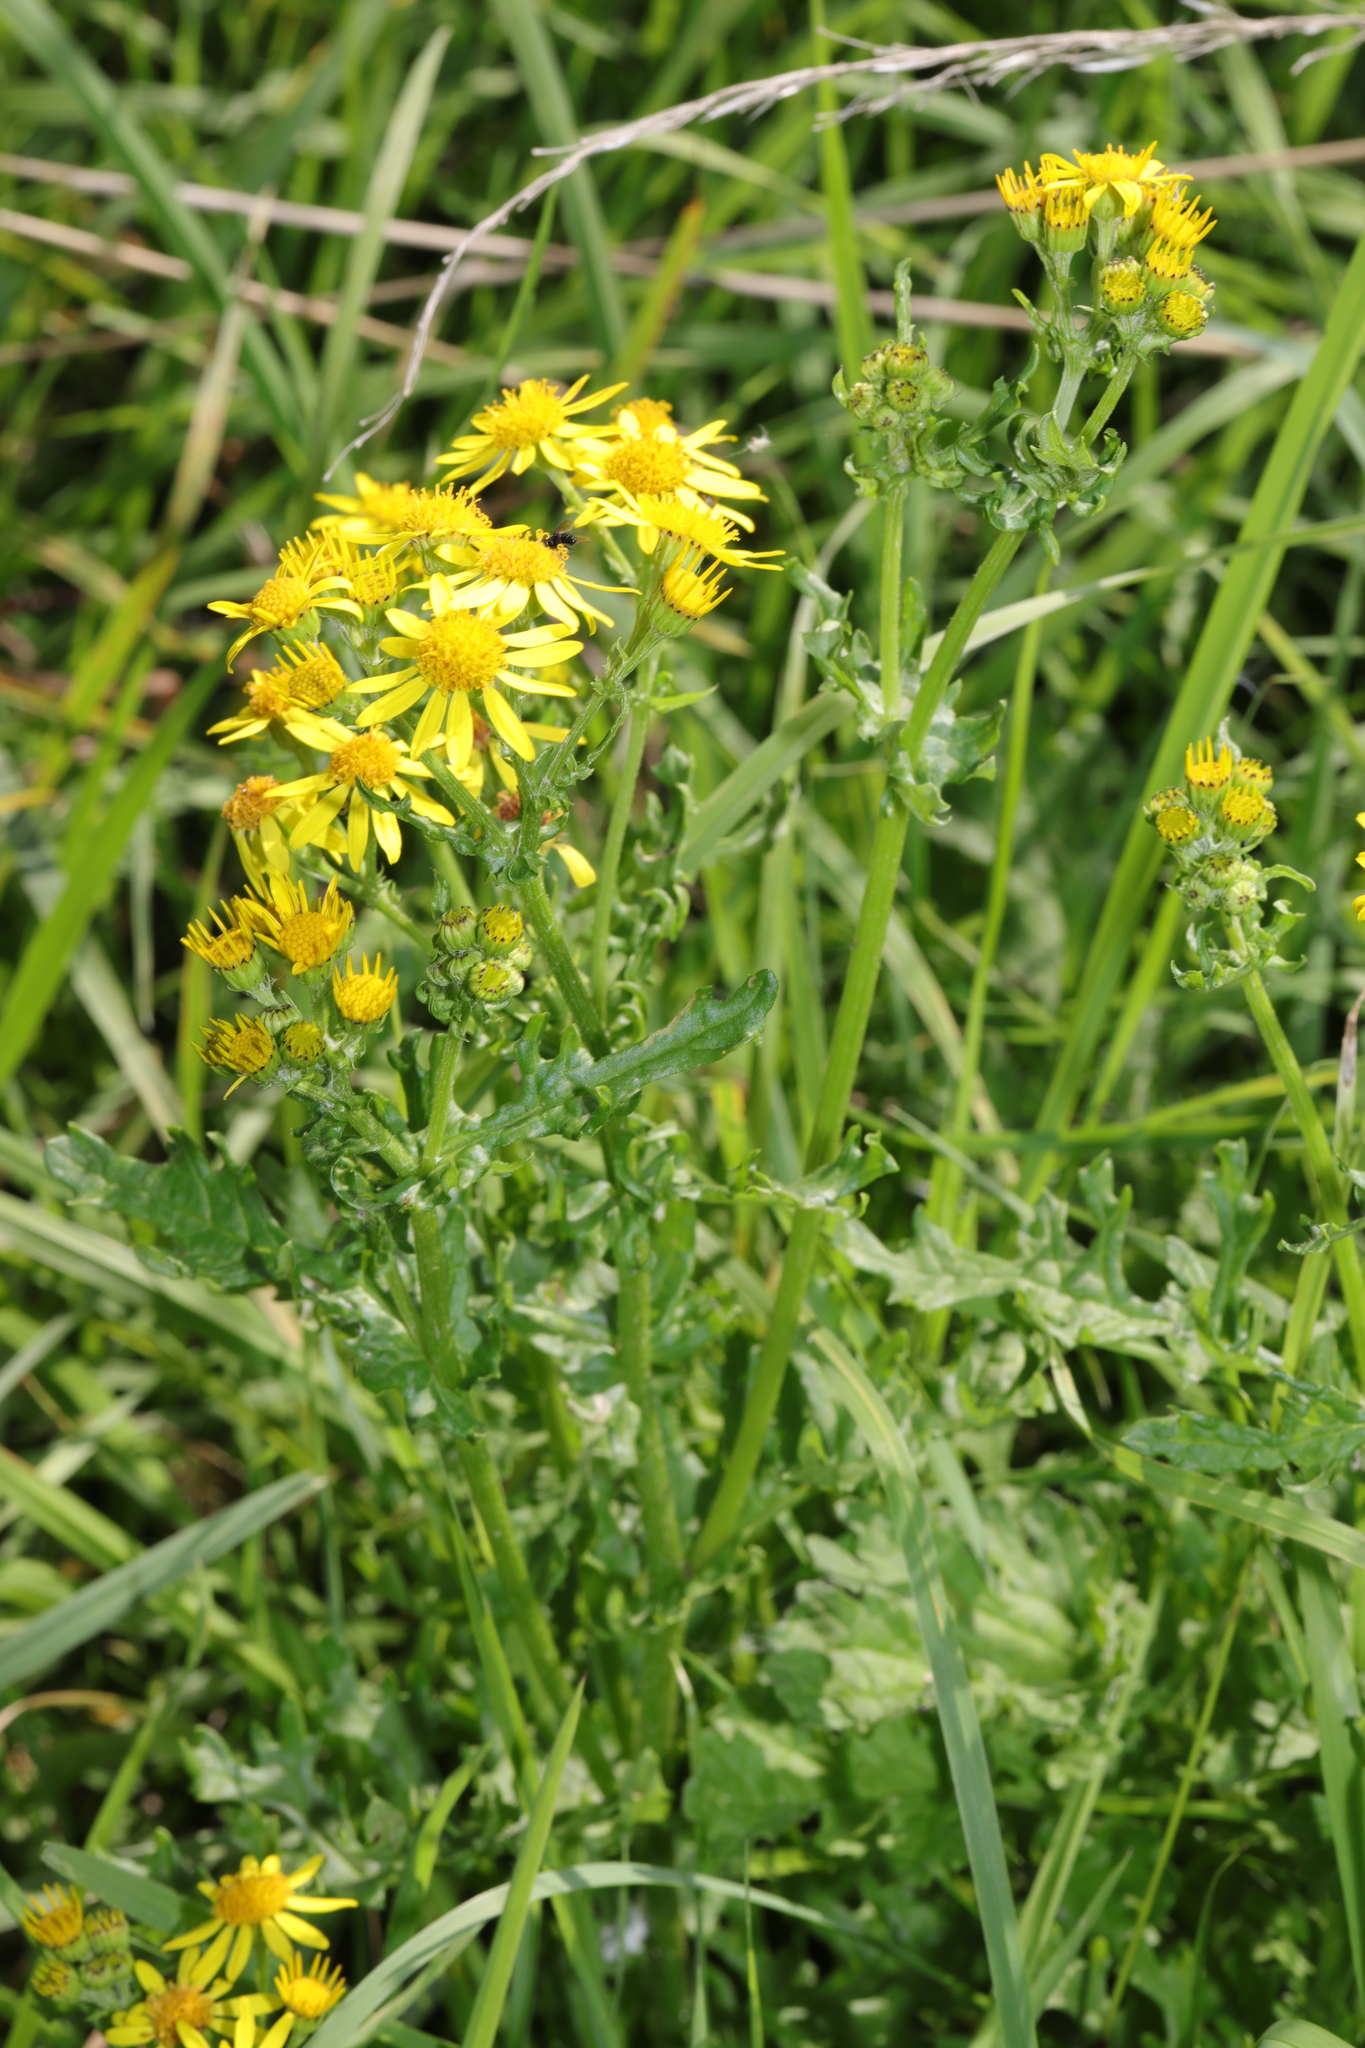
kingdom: Plantae
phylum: Tracheophyta
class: Magnoliopsida
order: Asterales
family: Asteraceae
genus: Jacobaea
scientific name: Jacobaea vulgaris
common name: Stinking willie
